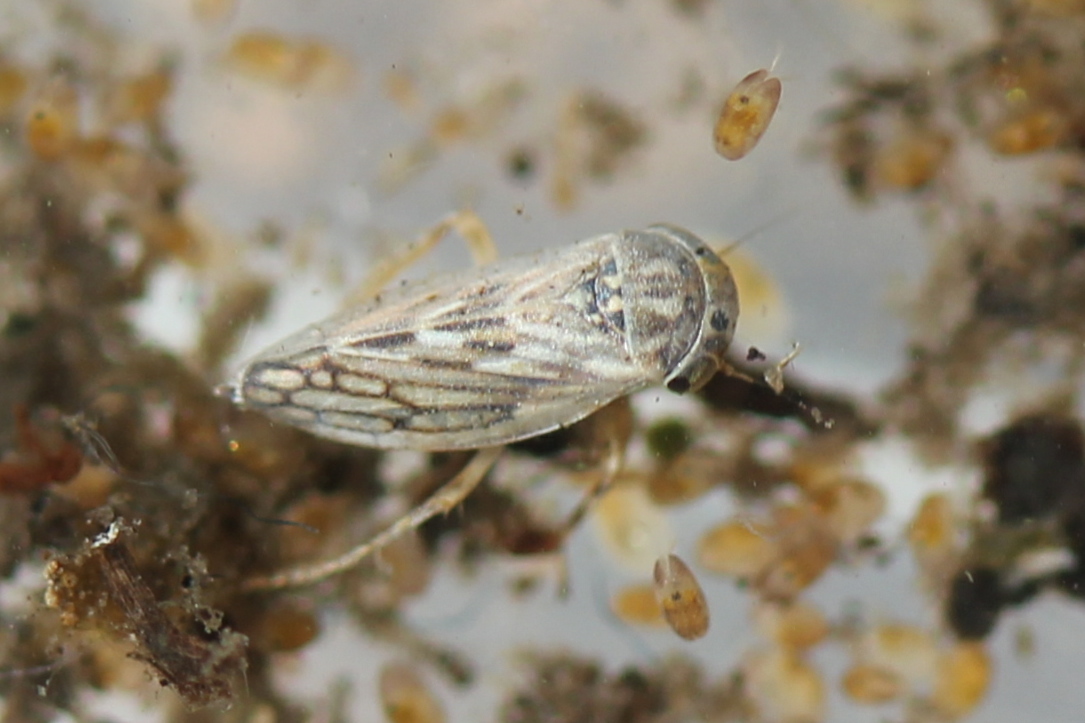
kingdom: Animalia
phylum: Arthropoda
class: Insecta
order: Hemiptera
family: Cicadellidae
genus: Aceratagallia
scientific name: Aceratagallia sanguinolenta
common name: Clover leafhopper
